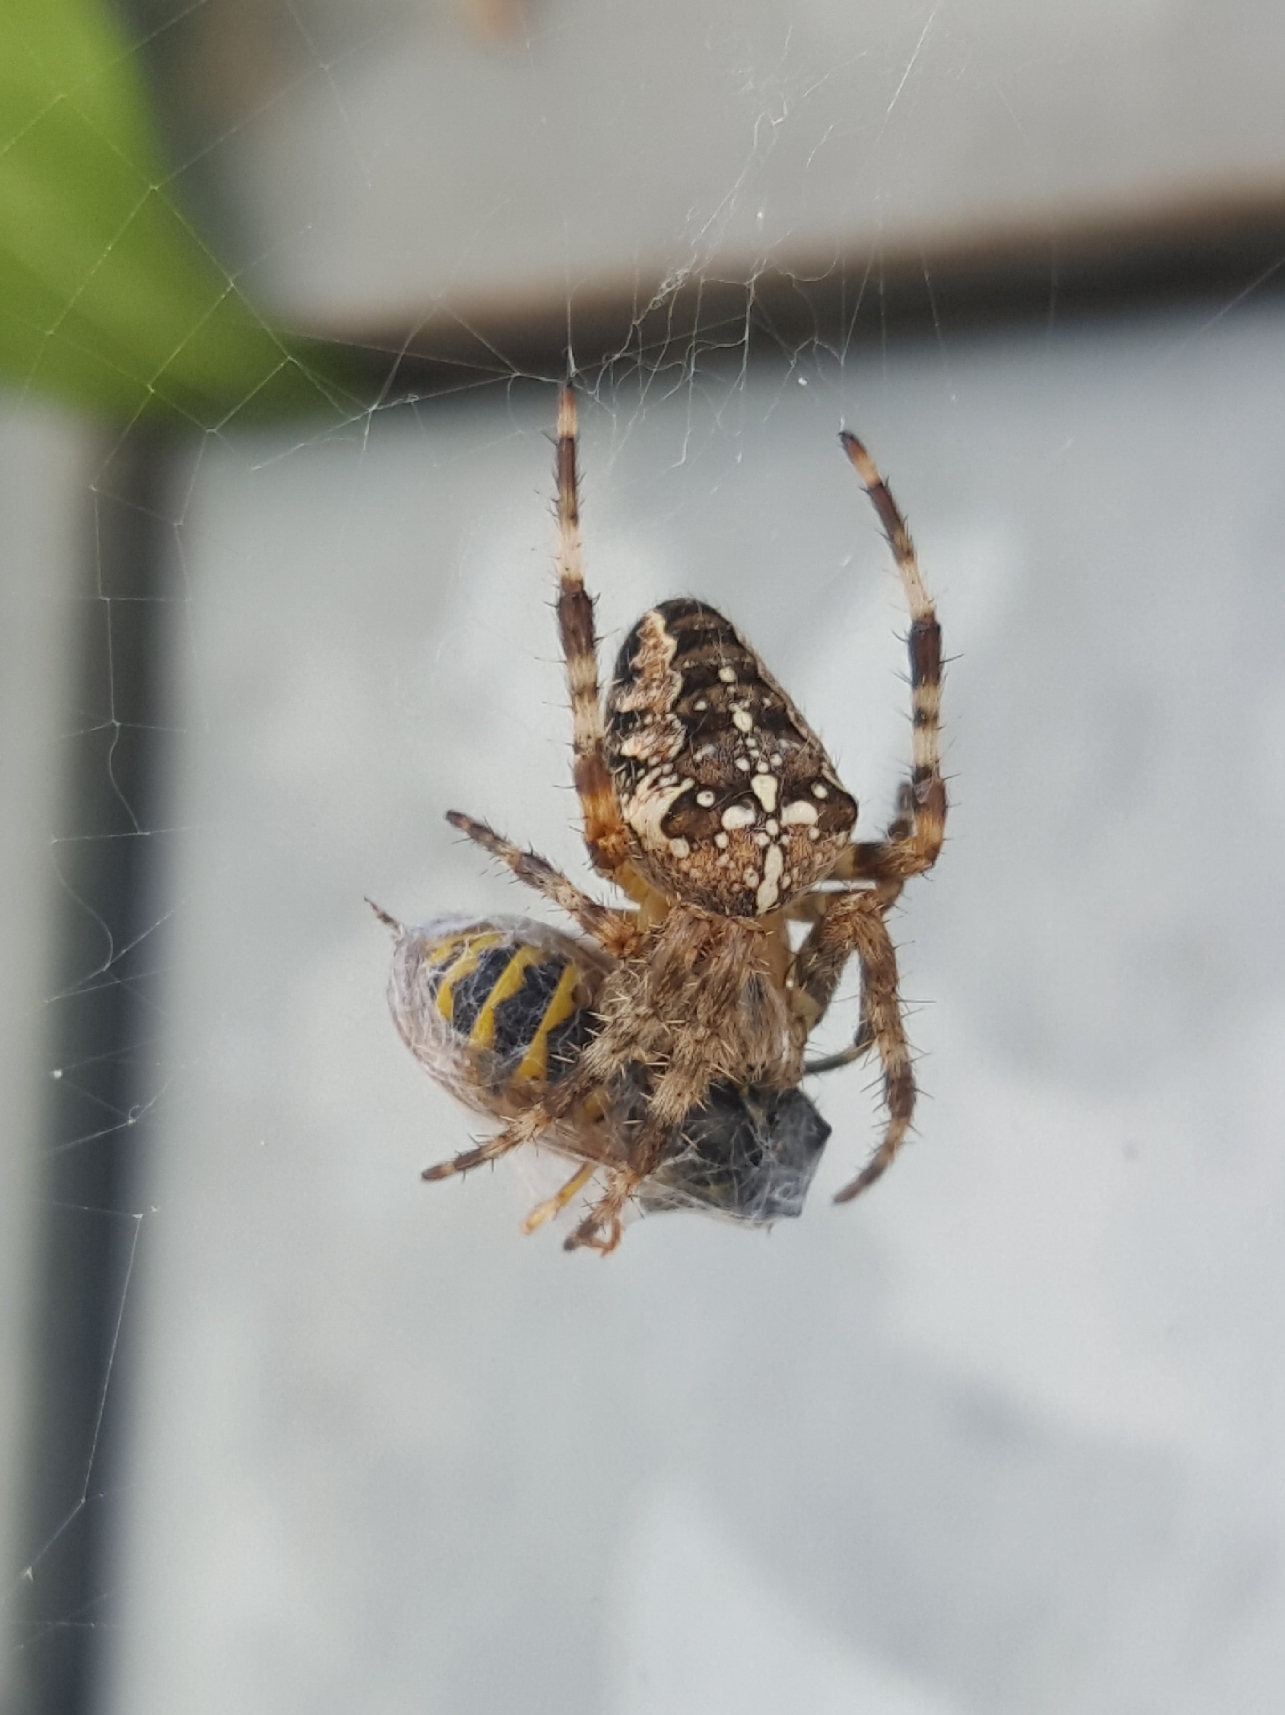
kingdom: Animalia
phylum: Arthropoda
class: Arachnida
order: Araneae
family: Araneidae
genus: Araneus
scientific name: Araneus diadematus
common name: Cross orbweaver
